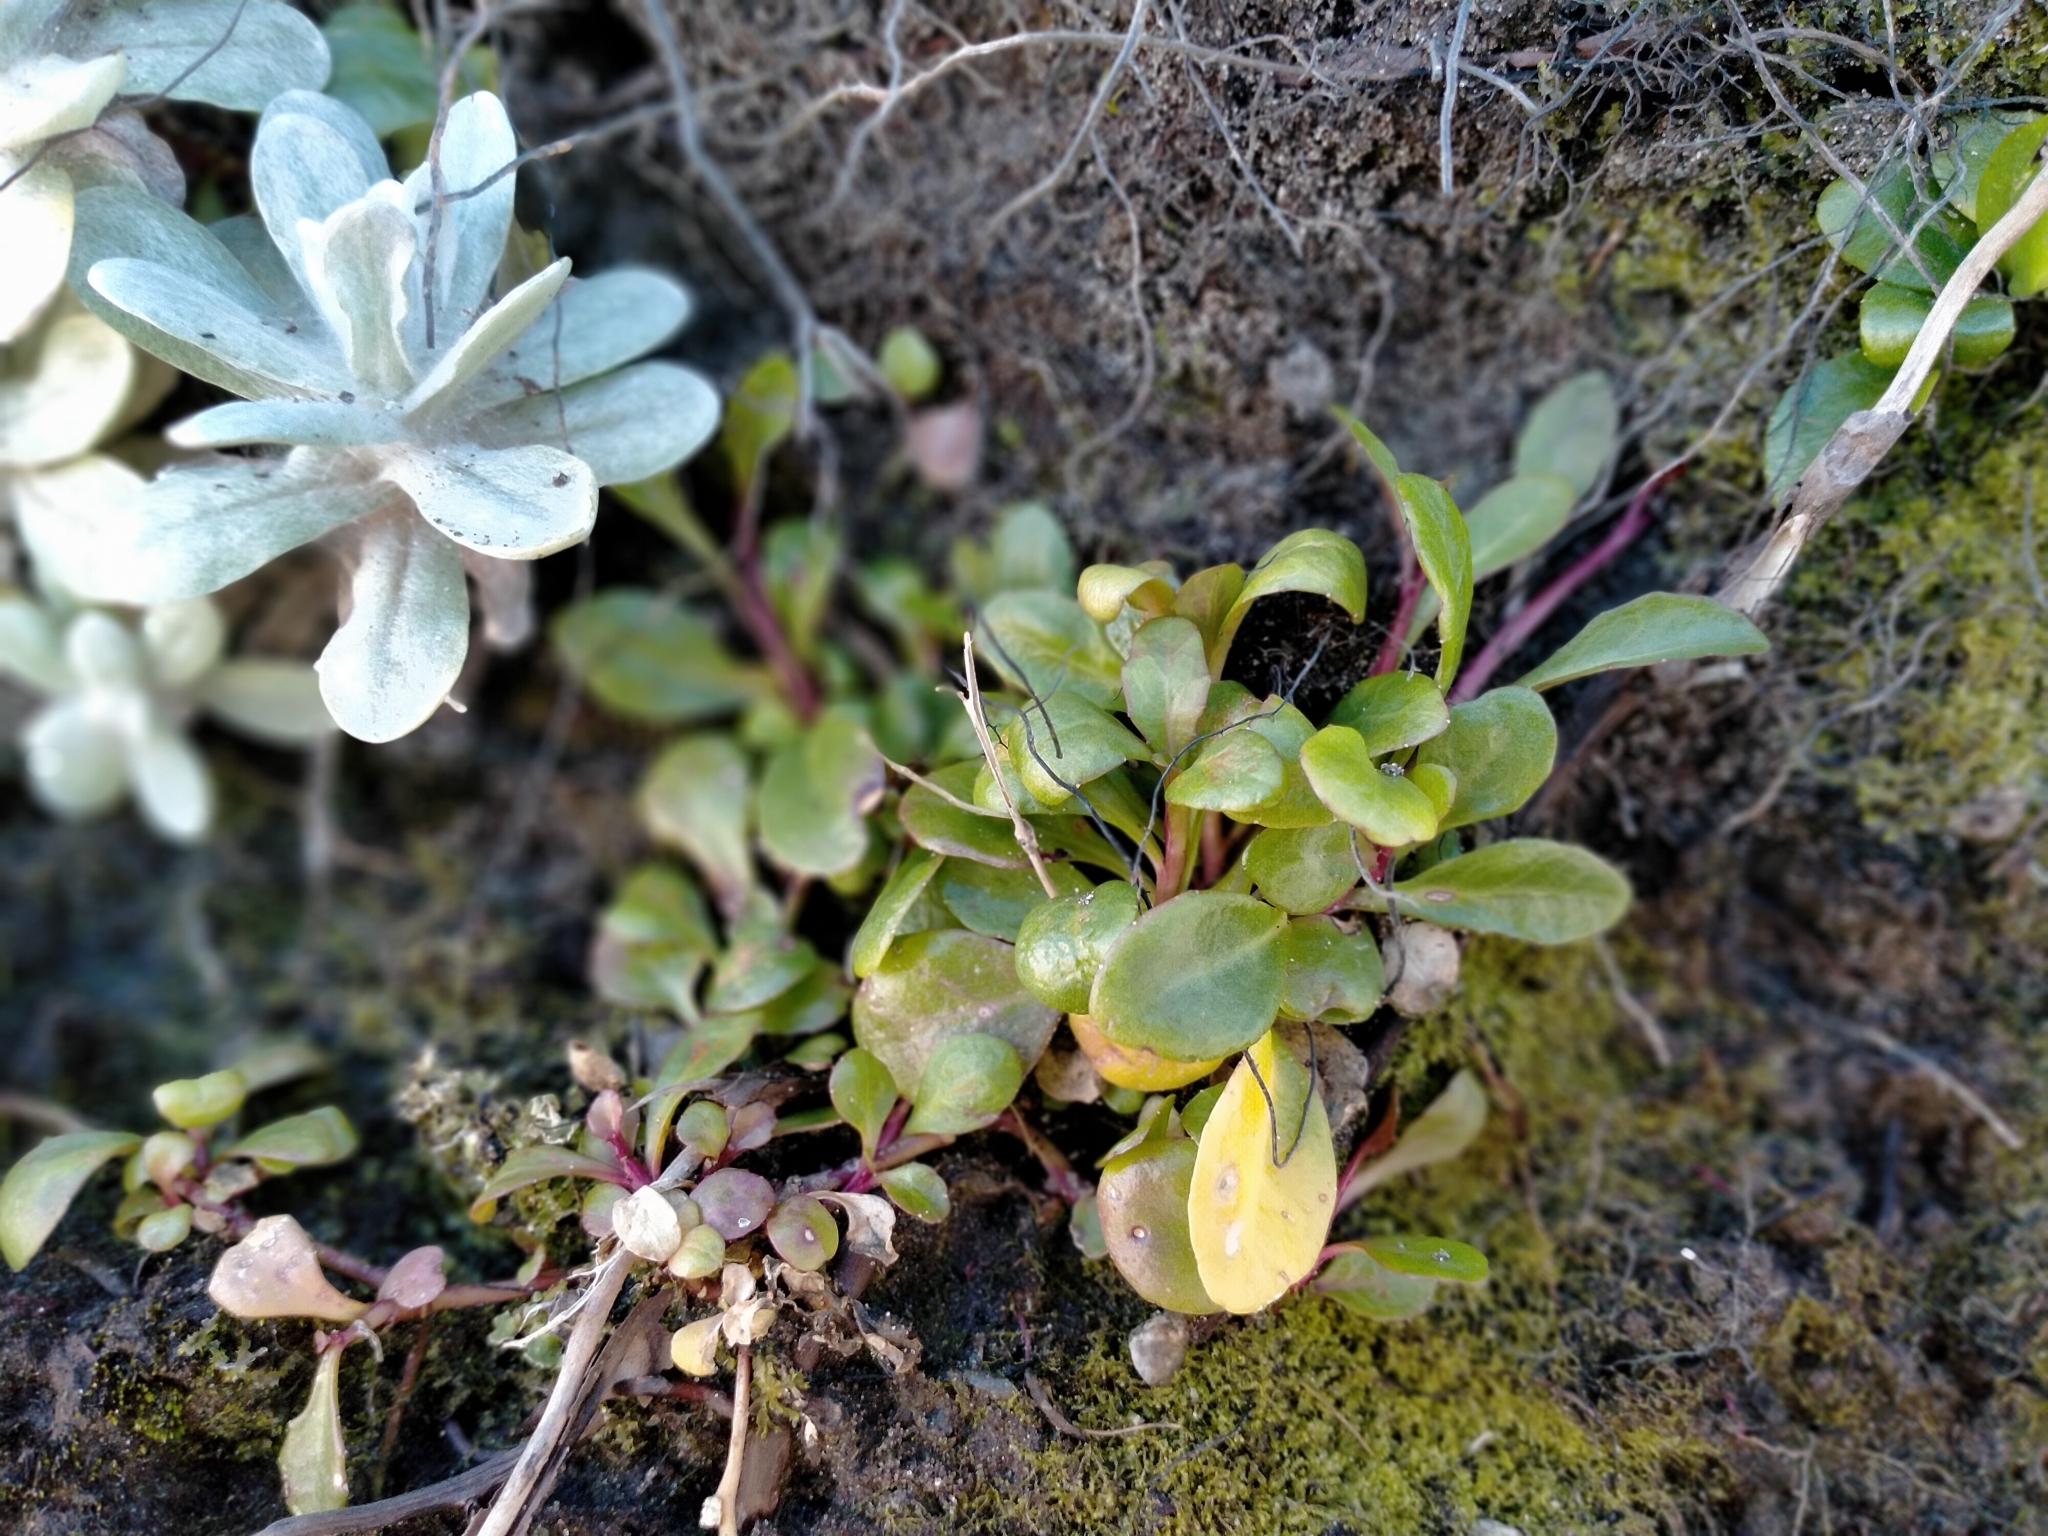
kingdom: Plantae
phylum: Tracheophyta
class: Magnoliopsida
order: Asterales
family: Campanulaceae
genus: Lobelia
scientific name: Lobelia anceps
